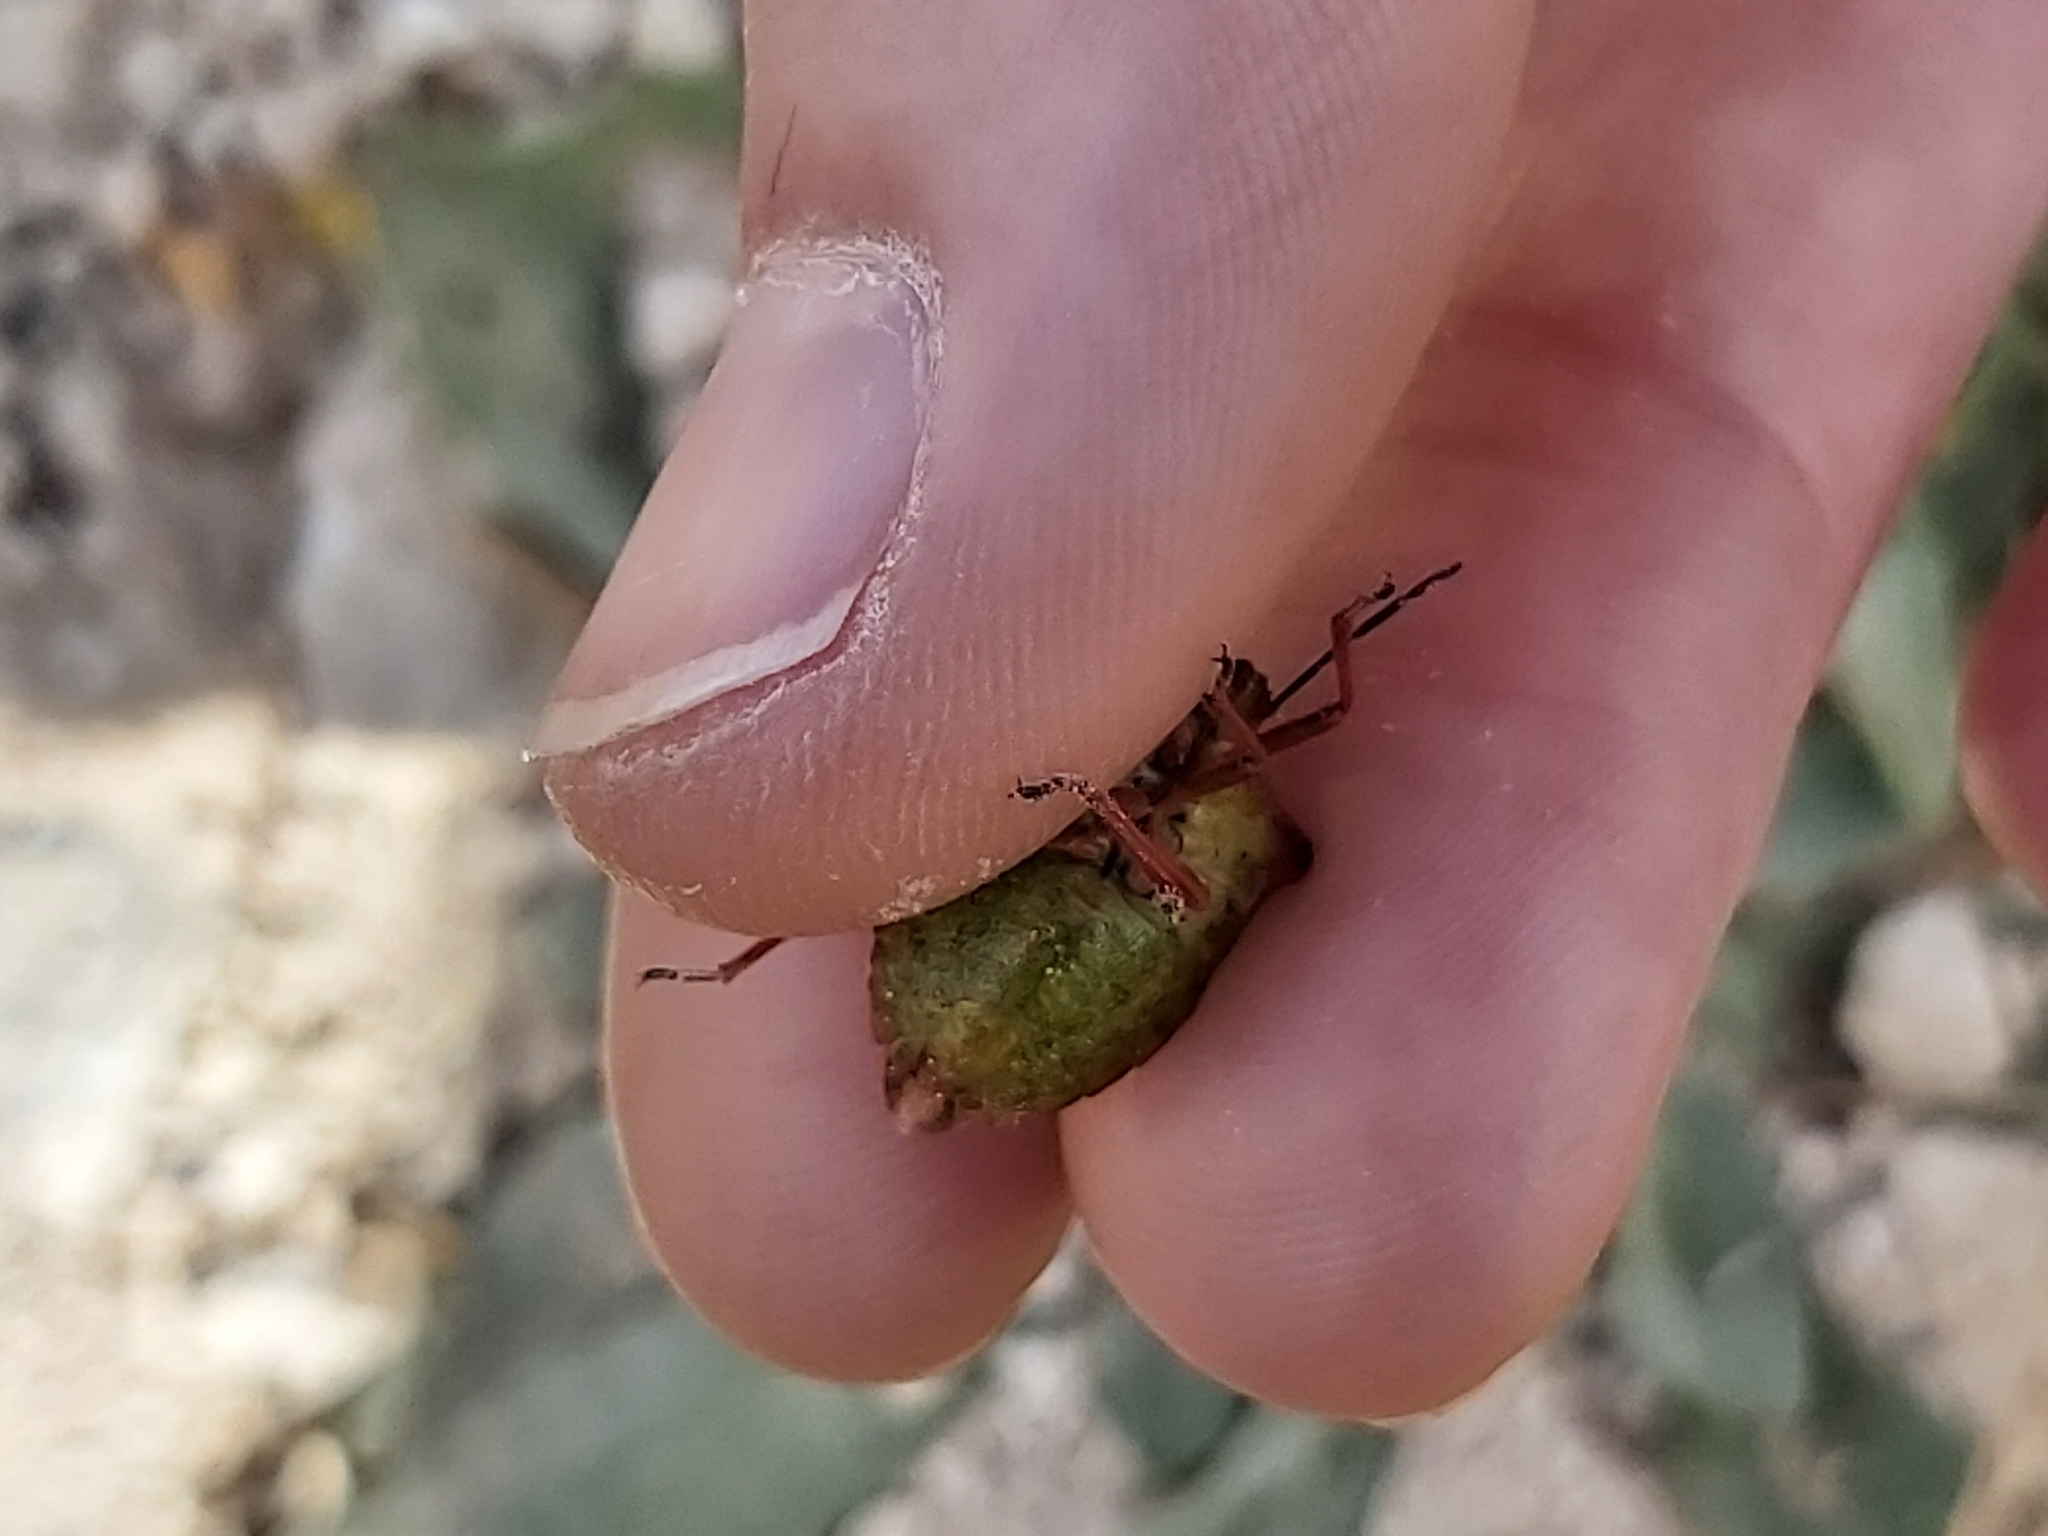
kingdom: Animalia
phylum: Arthropoda
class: Insecta
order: Hemiptera
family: Pentatomidae
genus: Carpocoris
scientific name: Carpocoris mediterraneus
